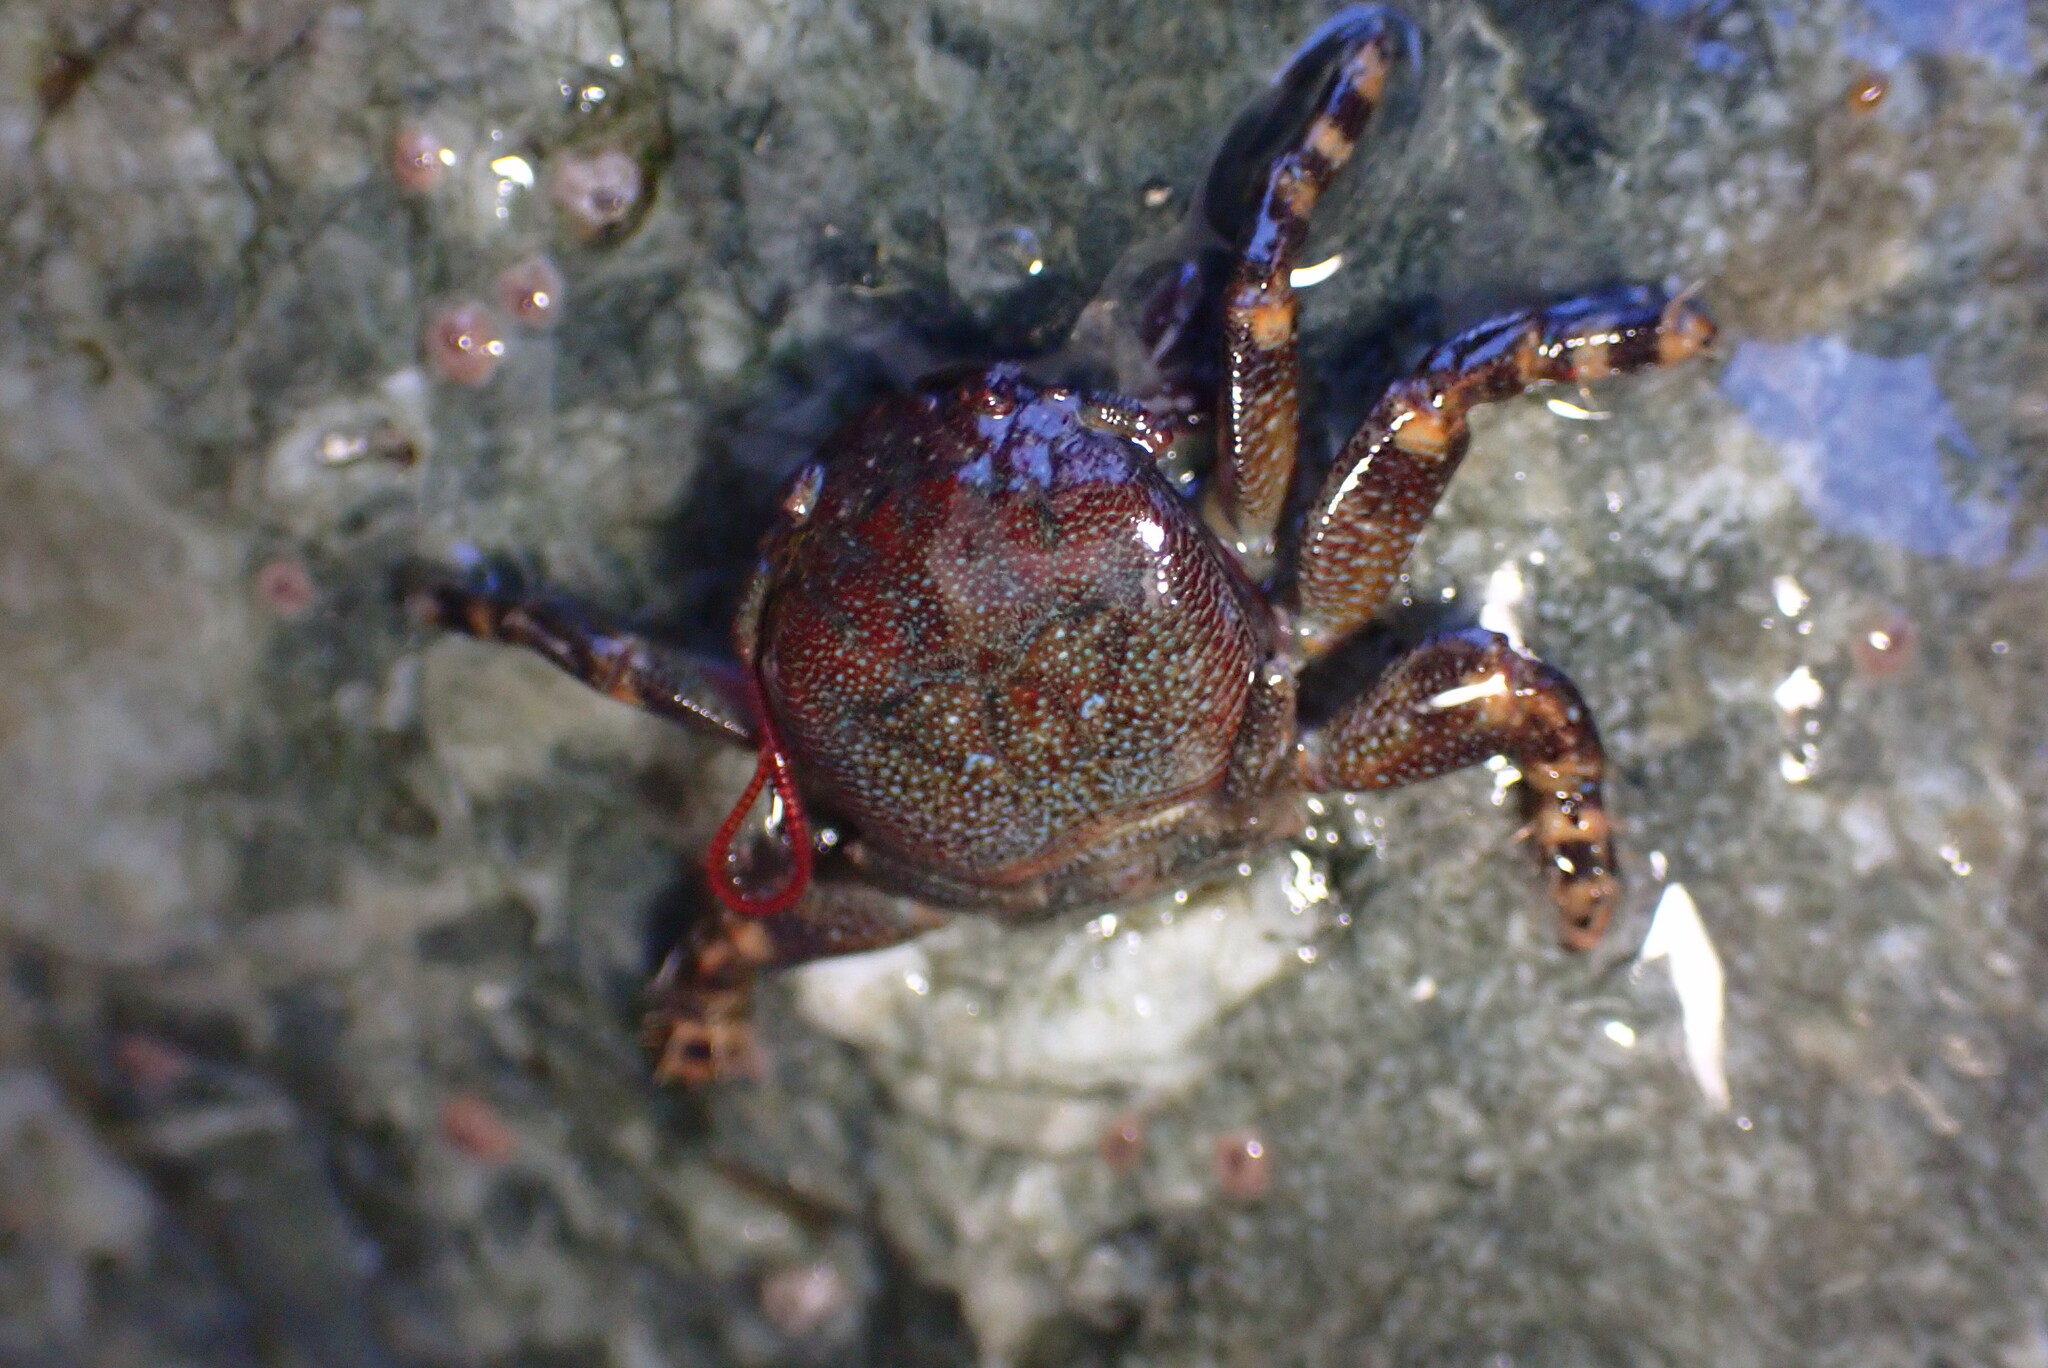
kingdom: Animalia
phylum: Arthropoda
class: Malacostraca
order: Decapoda
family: Porcellanidae
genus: Petrolisthes
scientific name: Petrolisthes cinctipes
